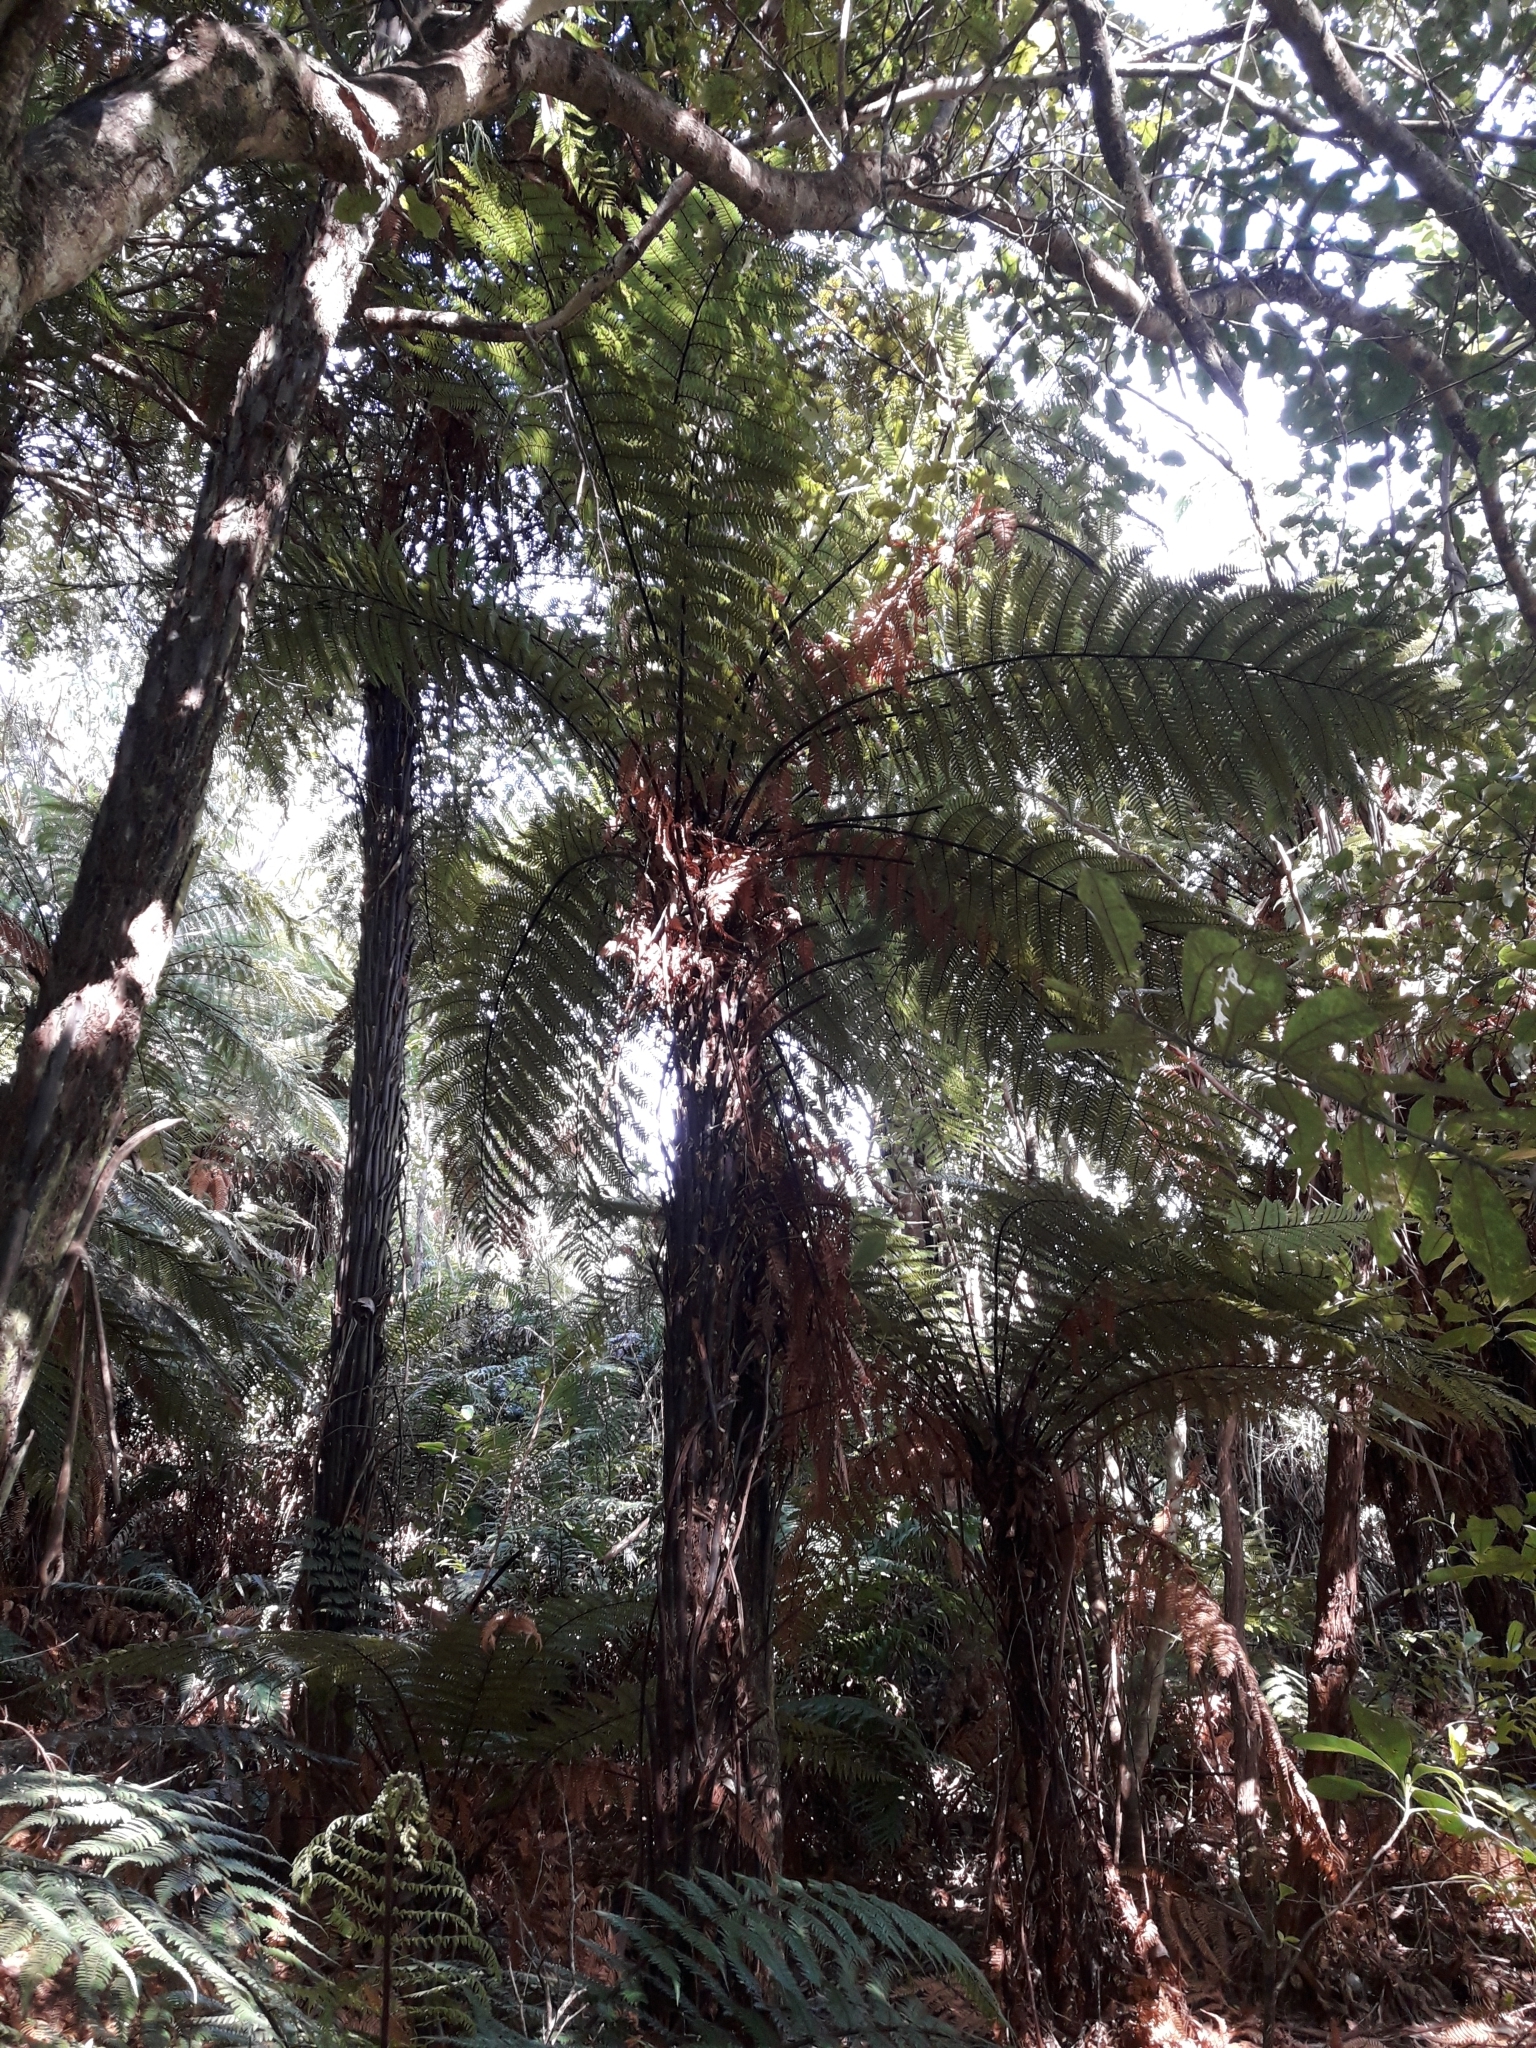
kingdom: Plantae
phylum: Tracheophyta
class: Polypodiopsida
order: Cyatheales
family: Dicksoniaceae
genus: Dicksonia
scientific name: Dicksonia squarrosa
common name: Hard treefern
